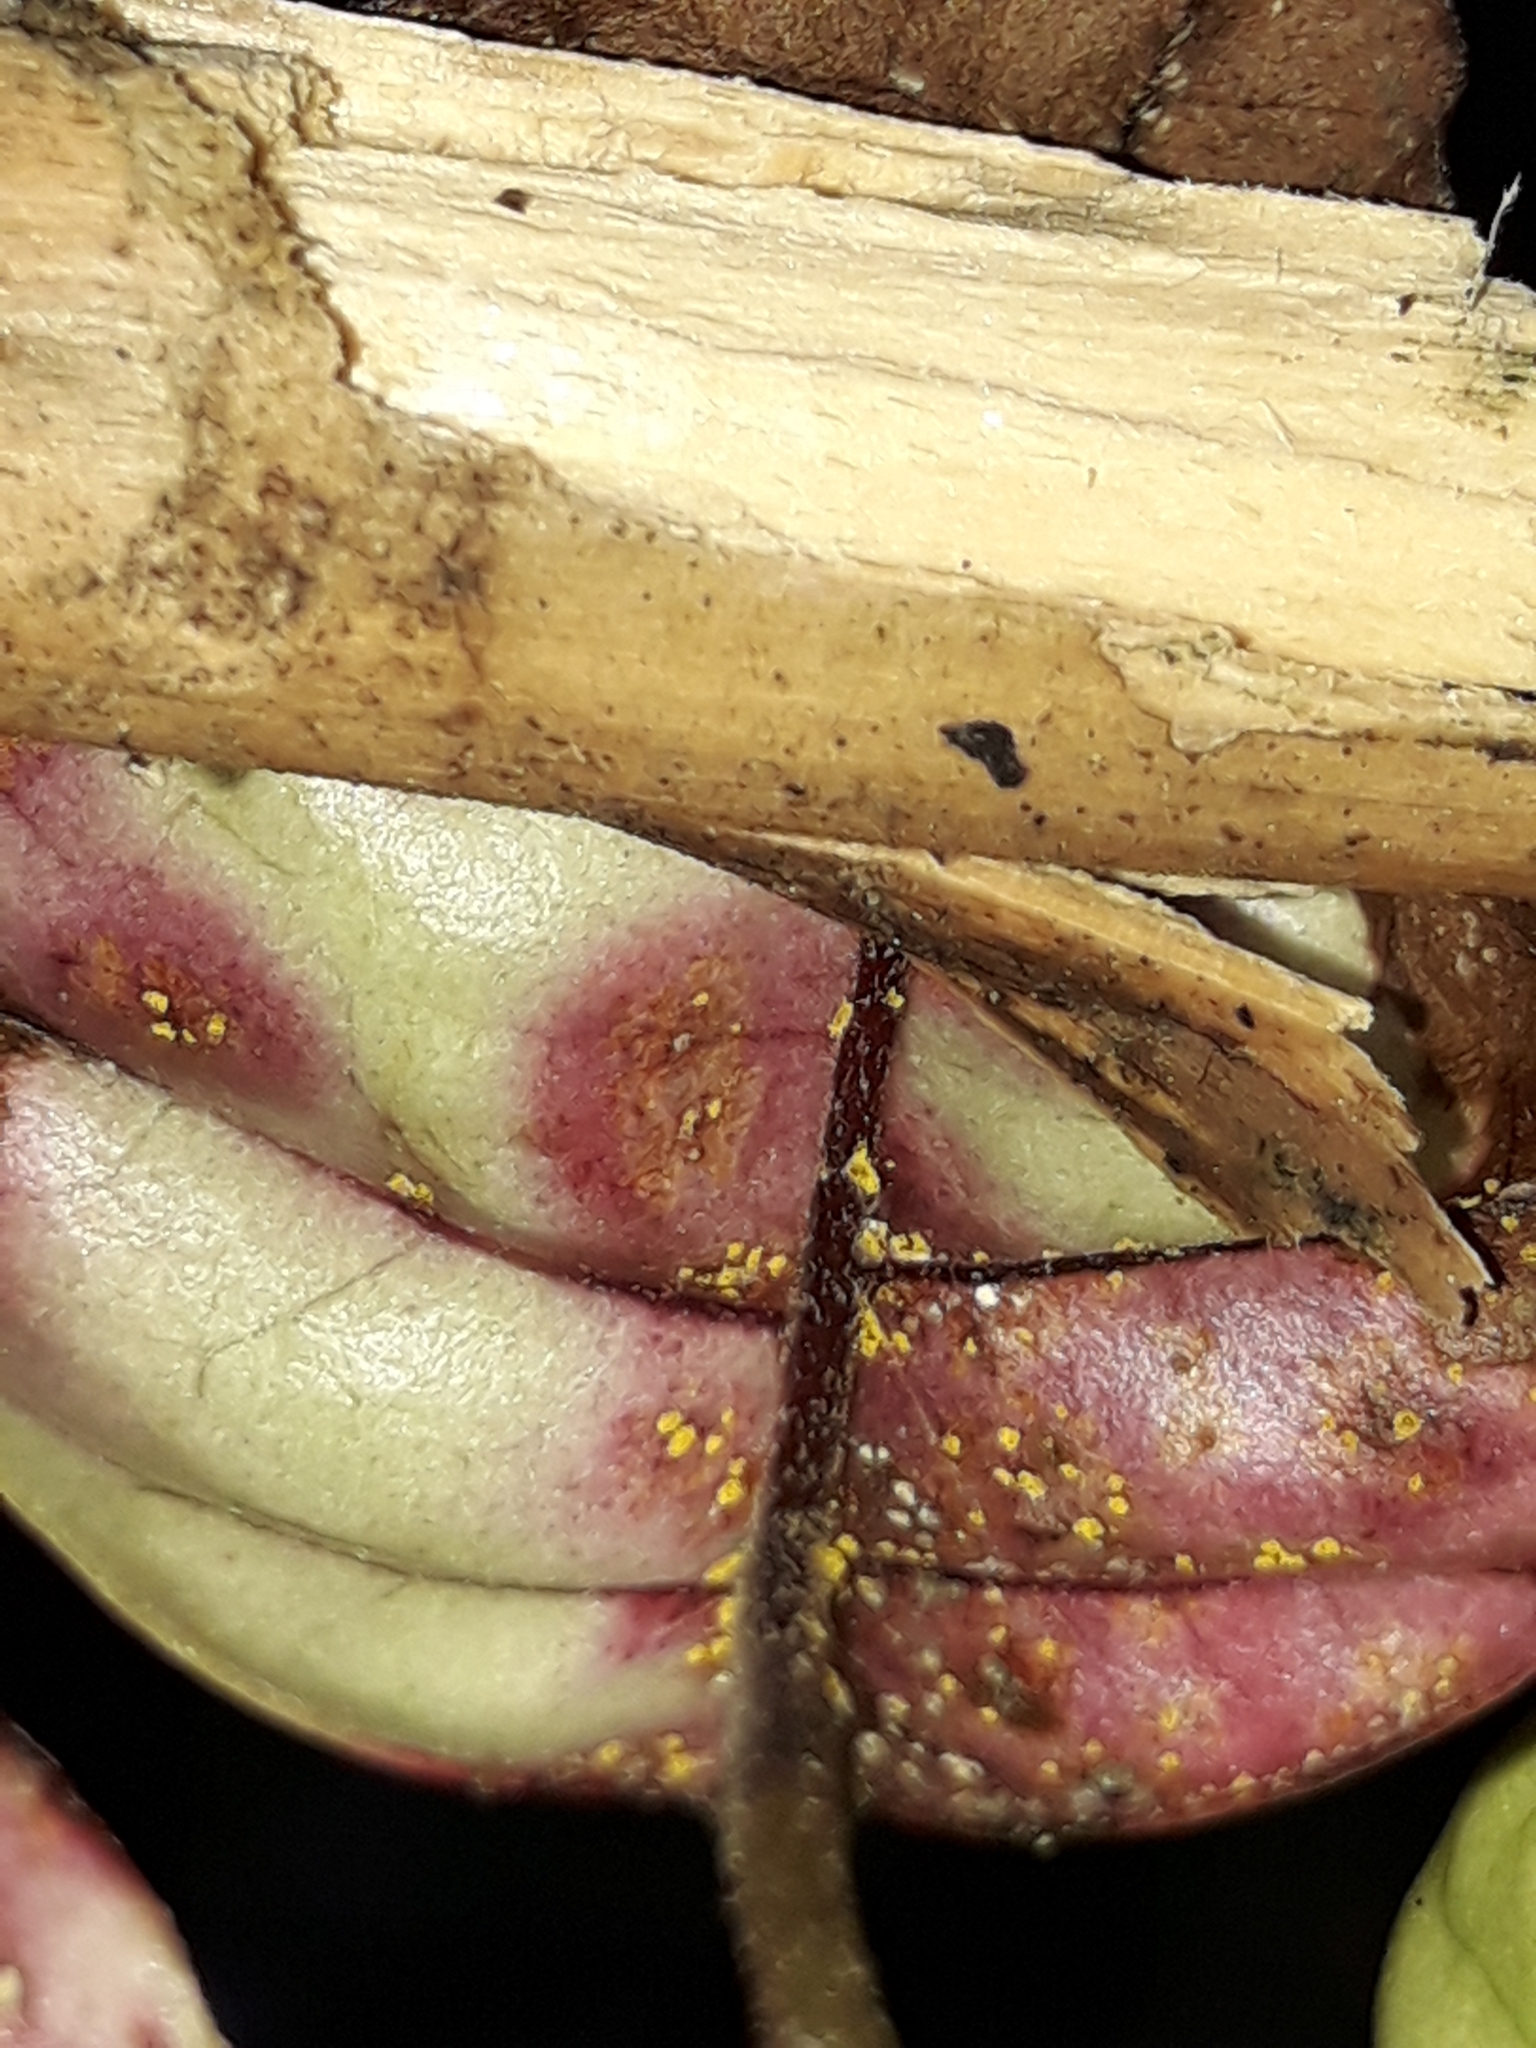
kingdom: Fungi
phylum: Basidiomycota
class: Pucciniomycetes
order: Pucciniales
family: Sphaerophragmiaceae
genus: Austropuccinia
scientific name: Austropuccinia psidii
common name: Myrtle rust
